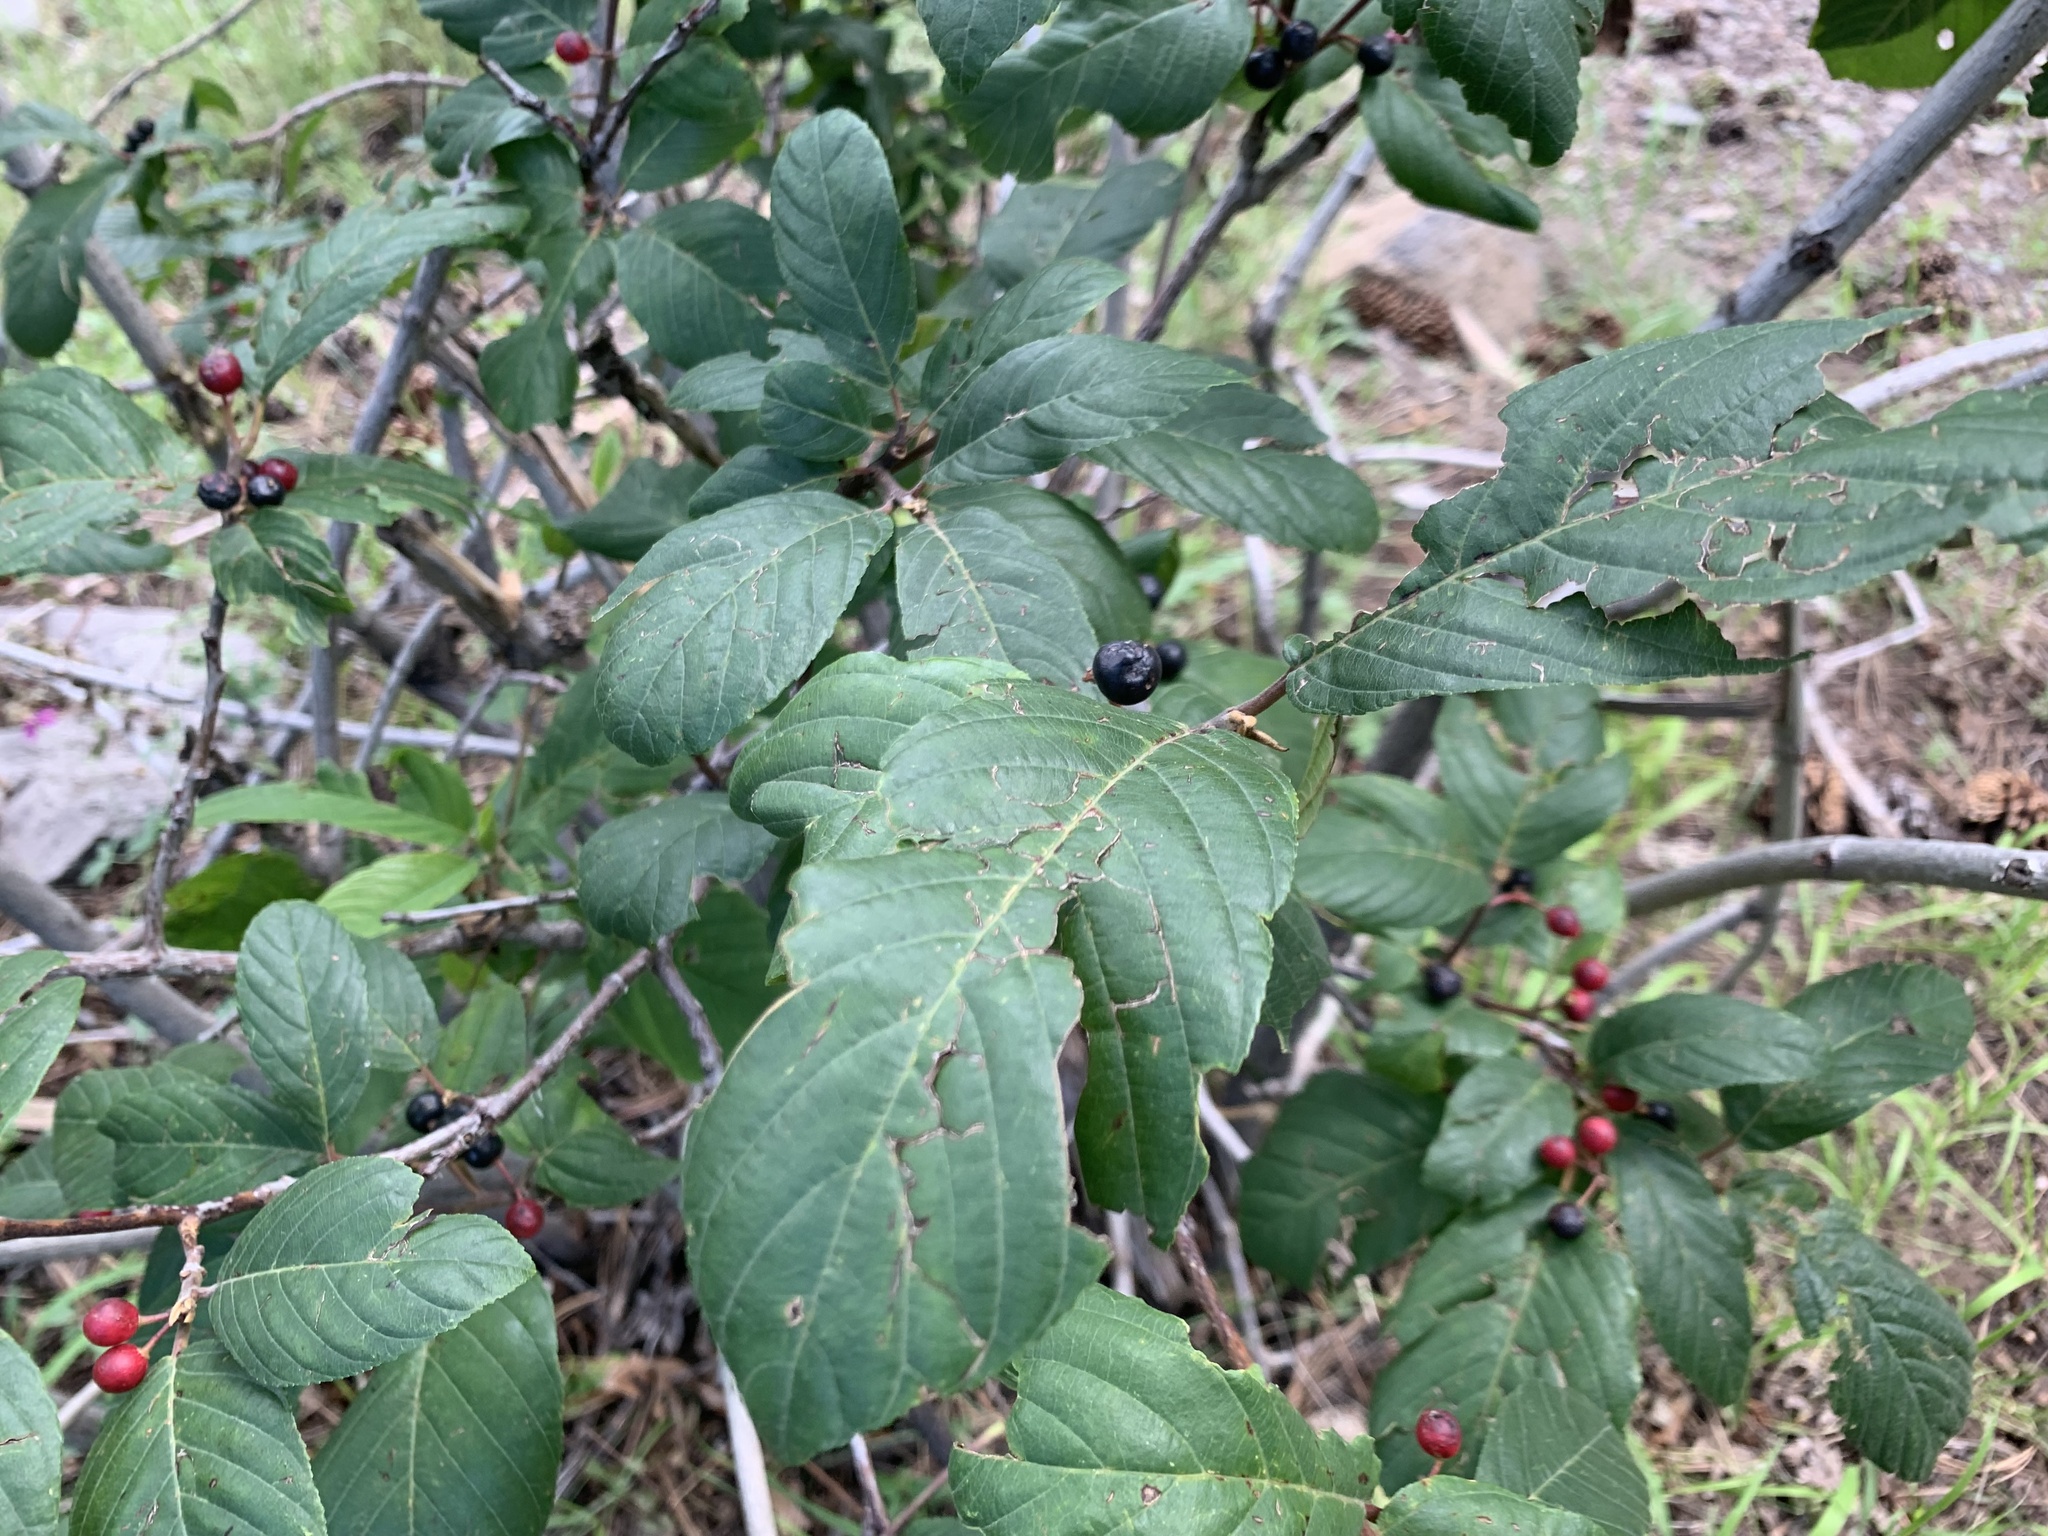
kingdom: Plantae
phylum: Tracheophyta
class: Magnoliopsida
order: Rosales
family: Rhamnaceae
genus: Frangula
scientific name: Frangula betulifolia
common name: Birch-leaf buckthorn
